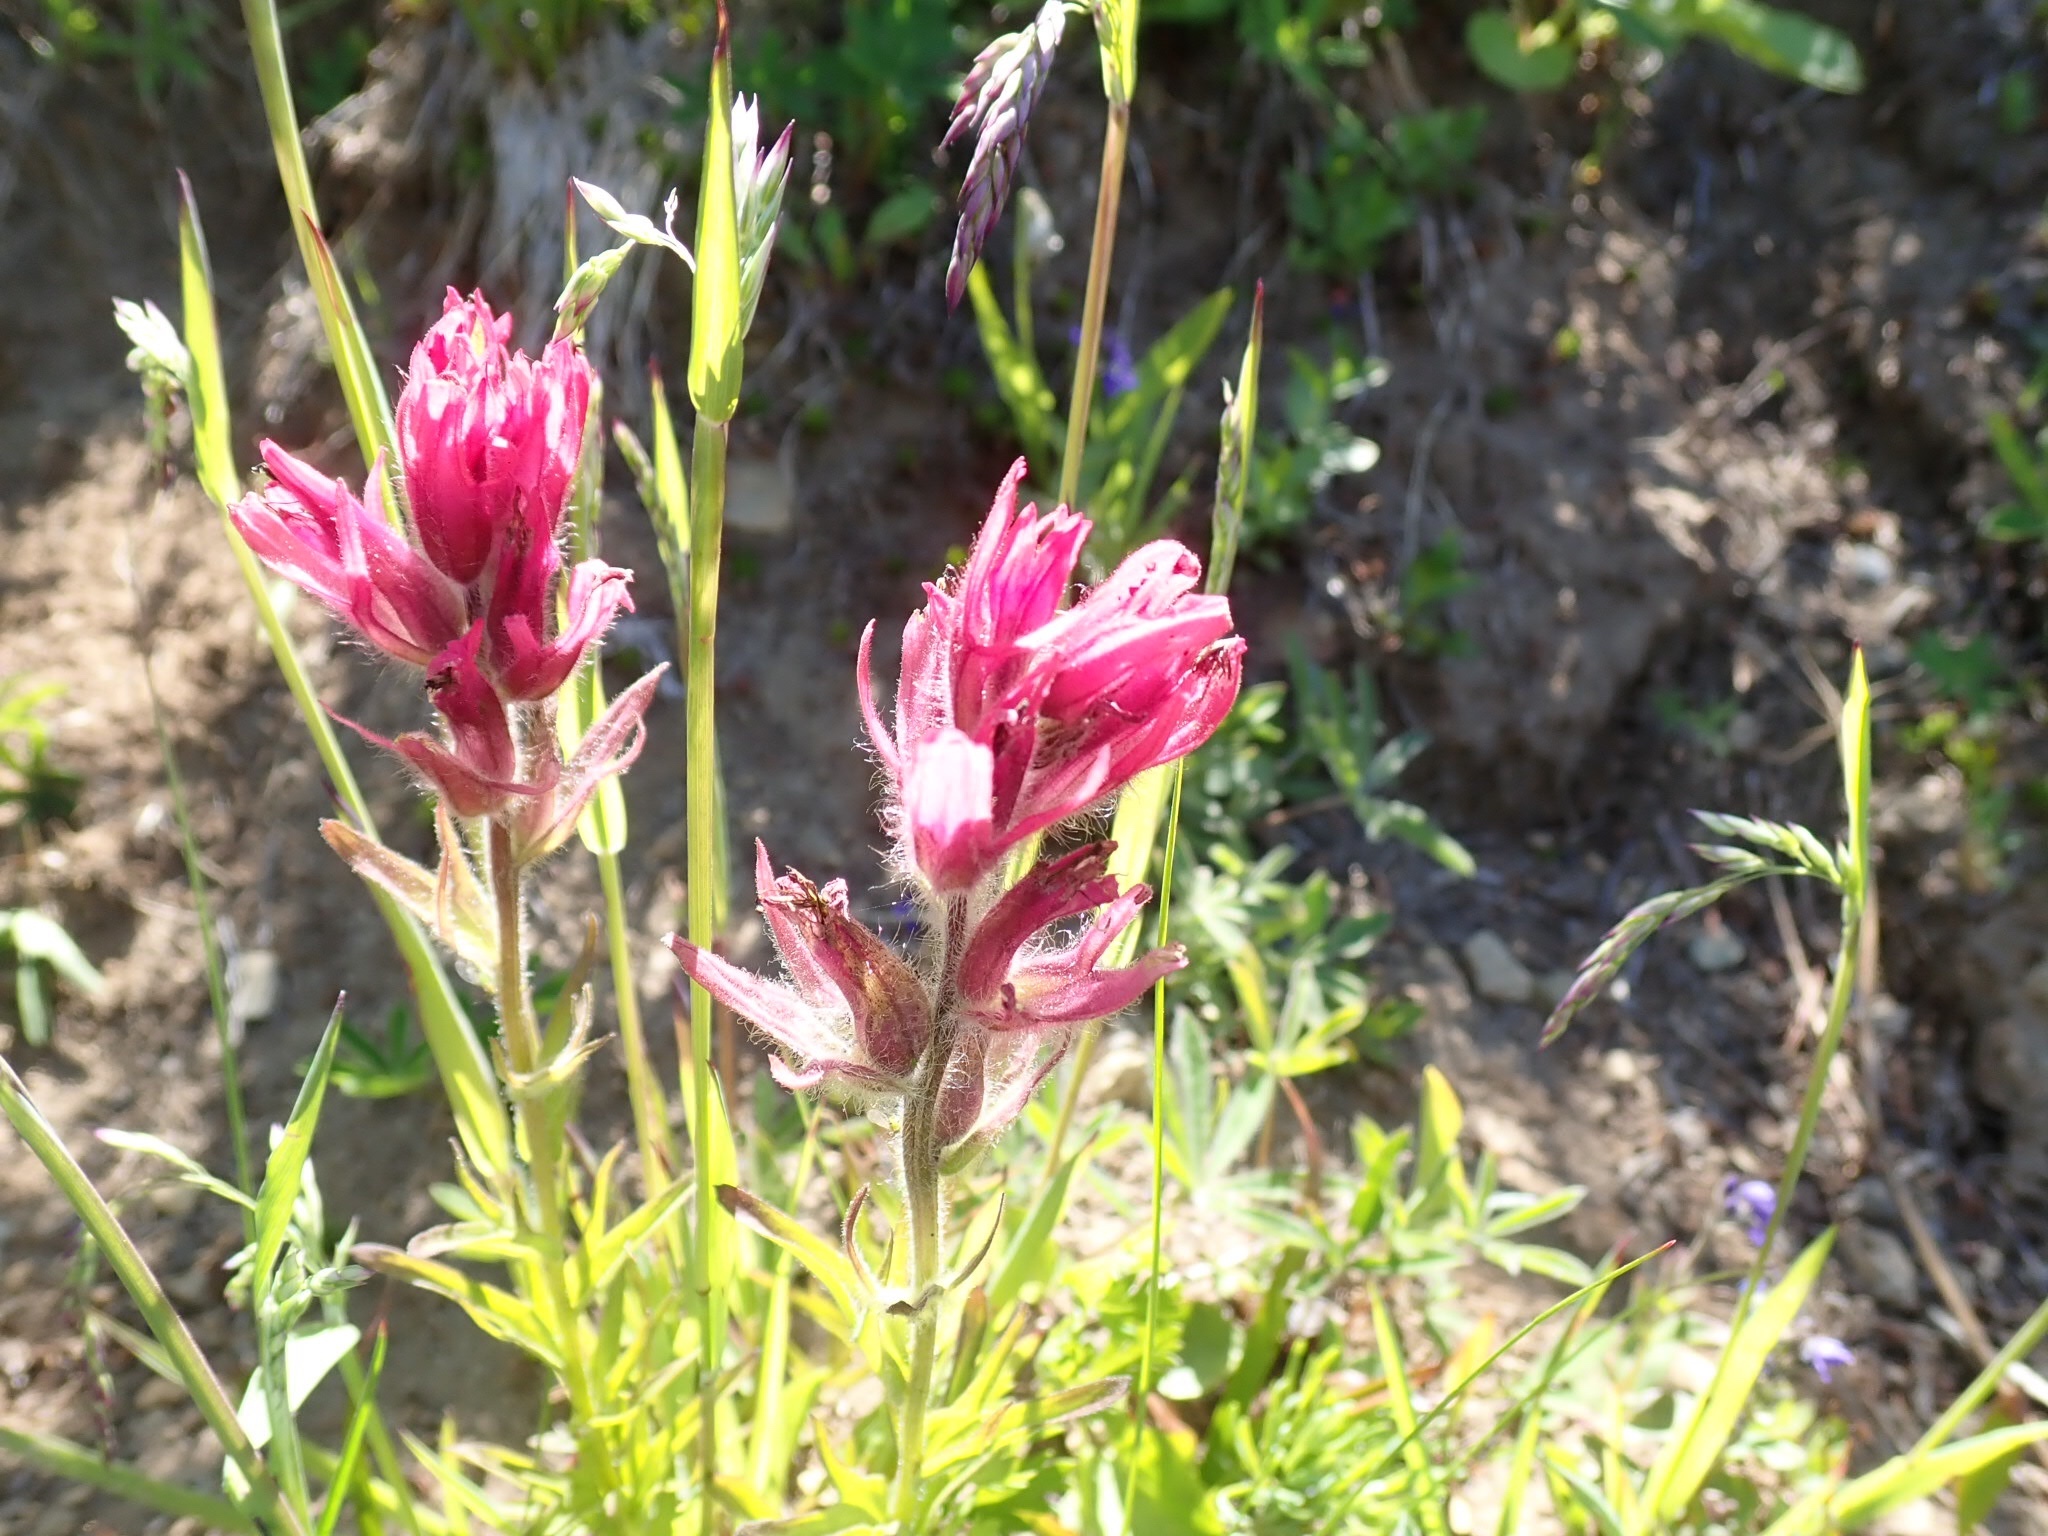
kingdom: Plantae
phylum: Tracheophyta
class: Magnoliopsida
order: Lamiales
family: Orobanchaceae
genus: Castilleja
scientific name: Castilleja parviflora
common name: Mountain paintbrush
